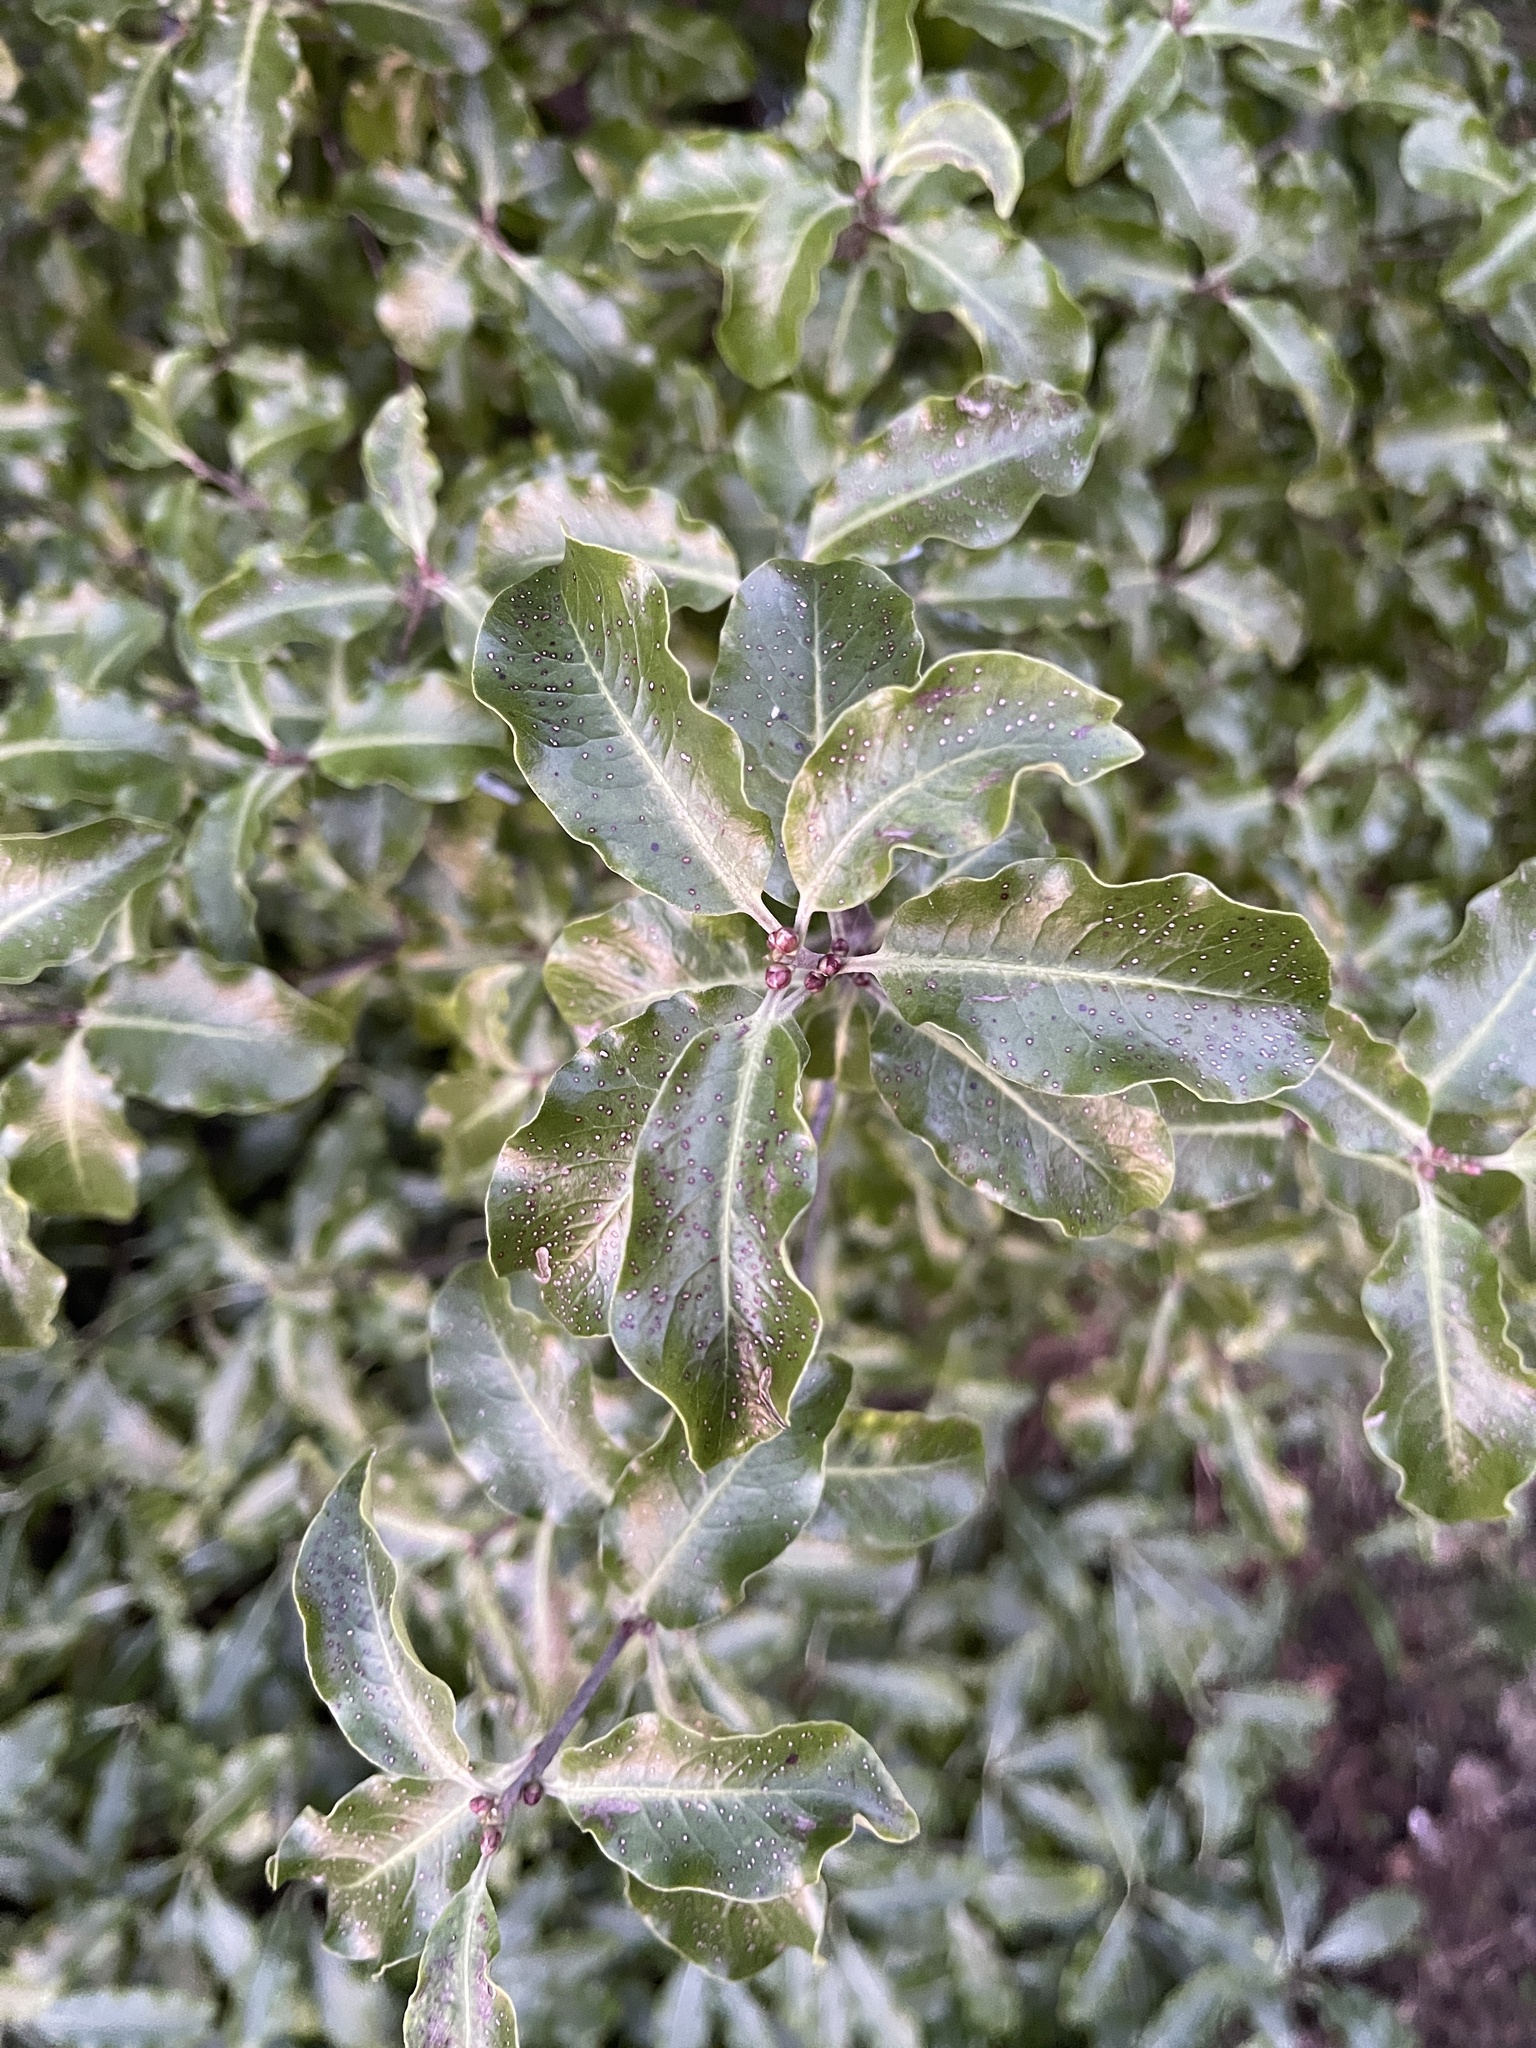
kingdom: Plantae
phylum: Tracheophyta
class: Magnoliopsida
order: Apiales
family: Pittosporaceae
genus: Pittosporum
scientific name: Pittosporum tenuifolium
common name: Kohuhu
